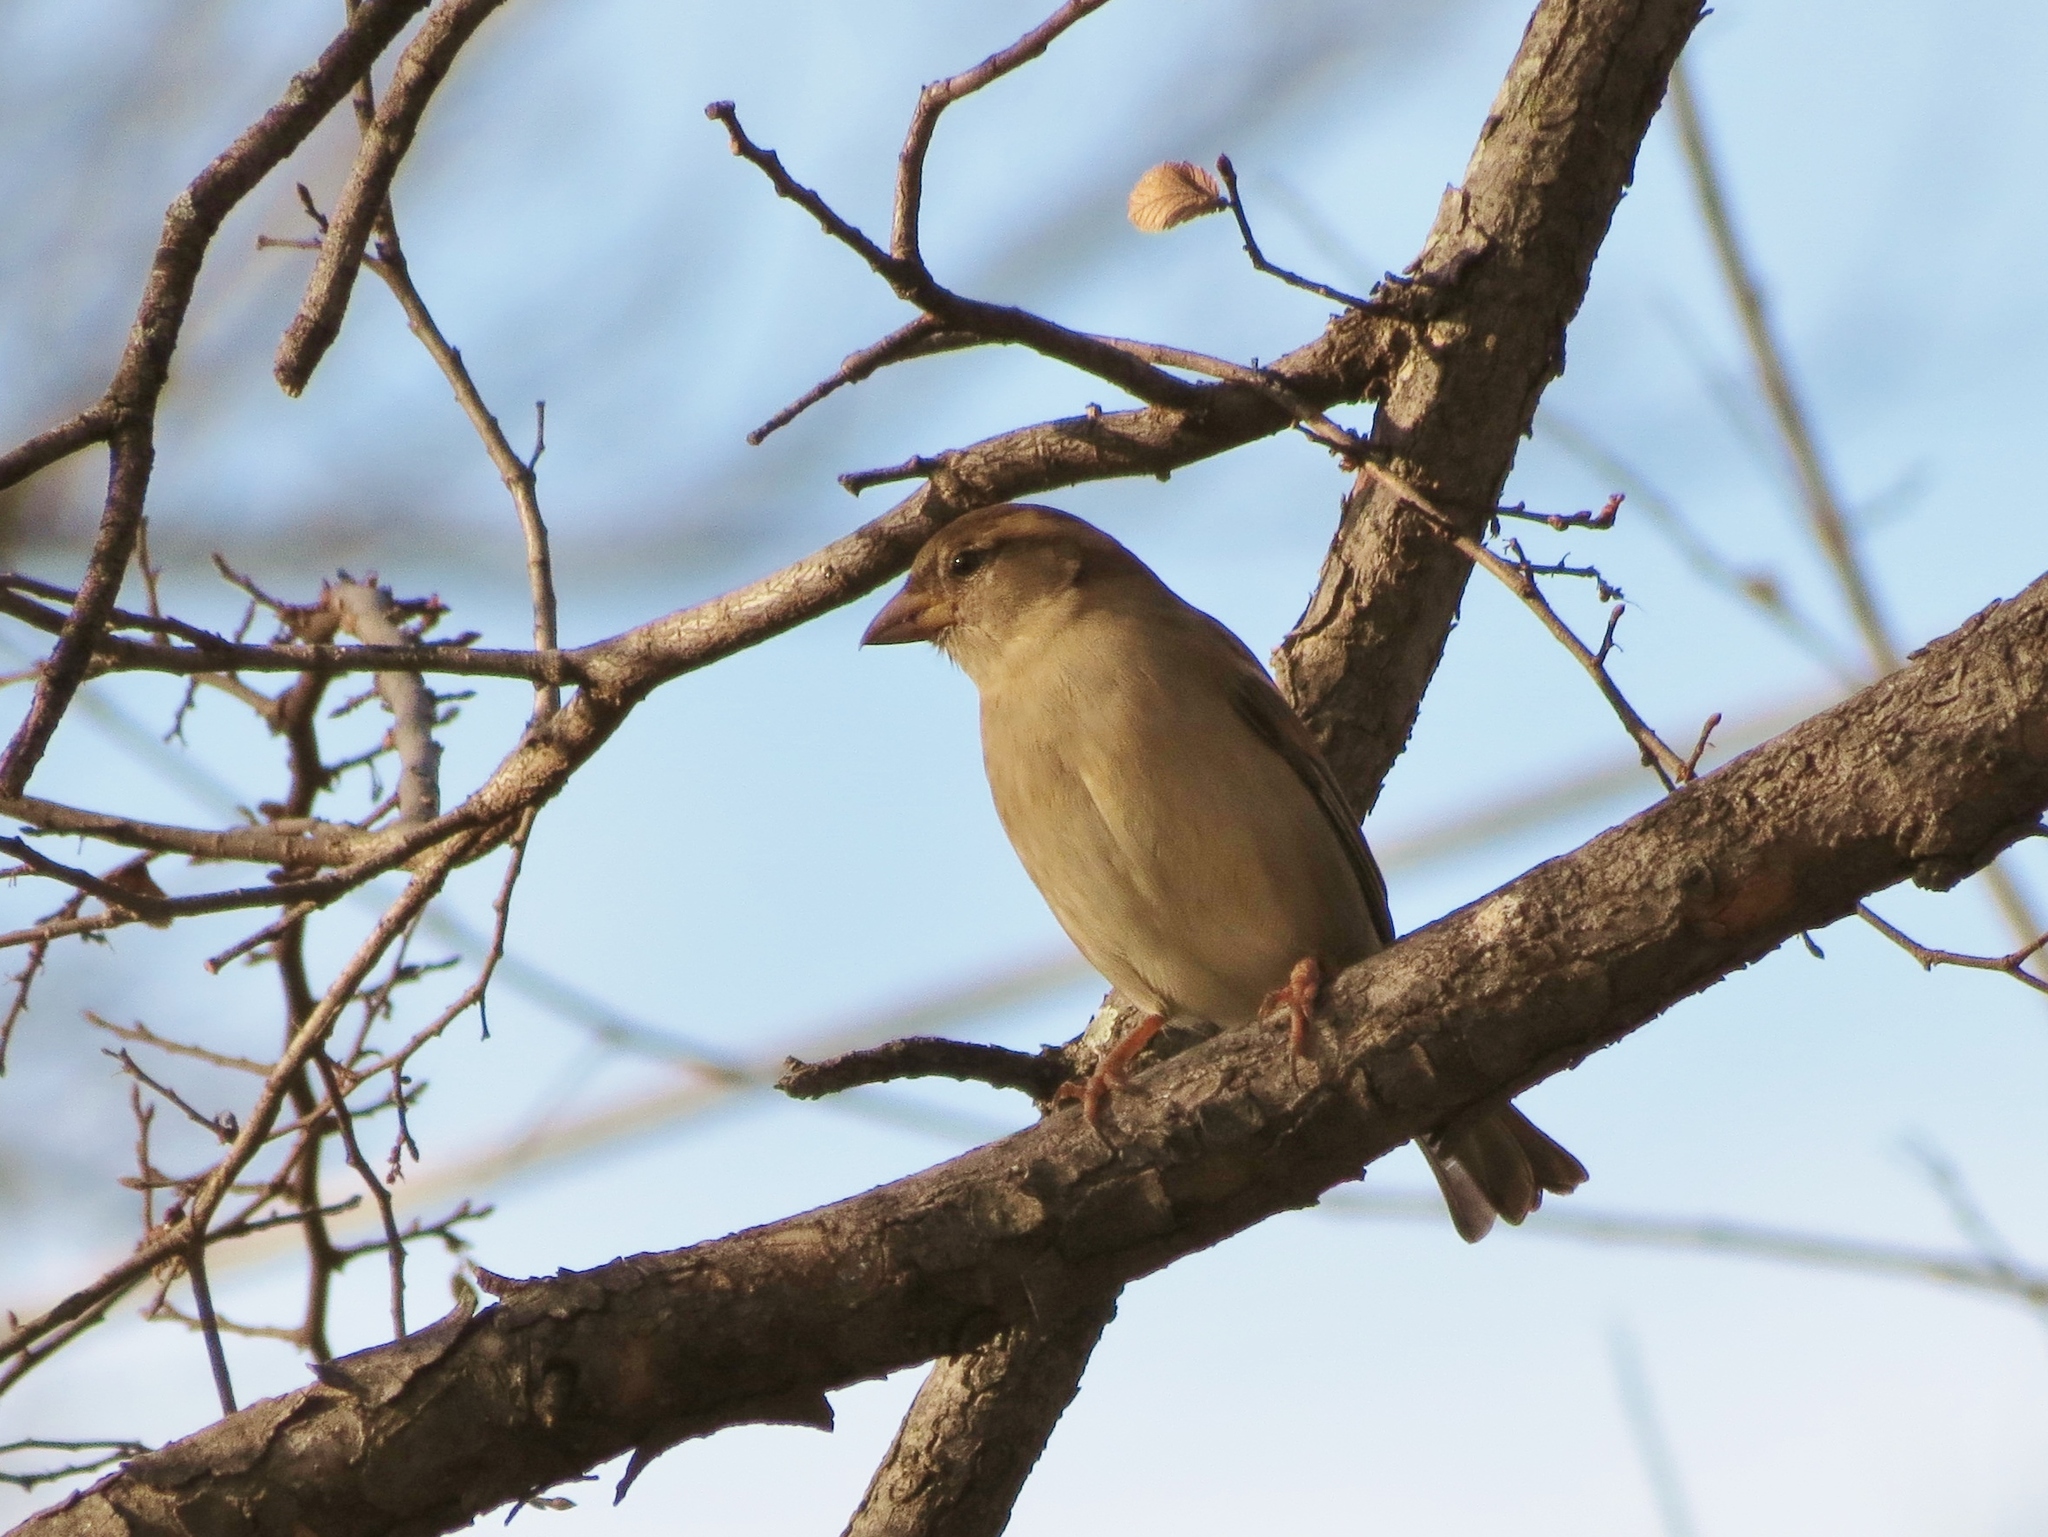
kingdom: Animalia
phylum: Chordata
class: Aves
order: Passeriformes
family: Passeridae
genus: Passer
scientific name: Passer domesticus
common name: House sparrow
